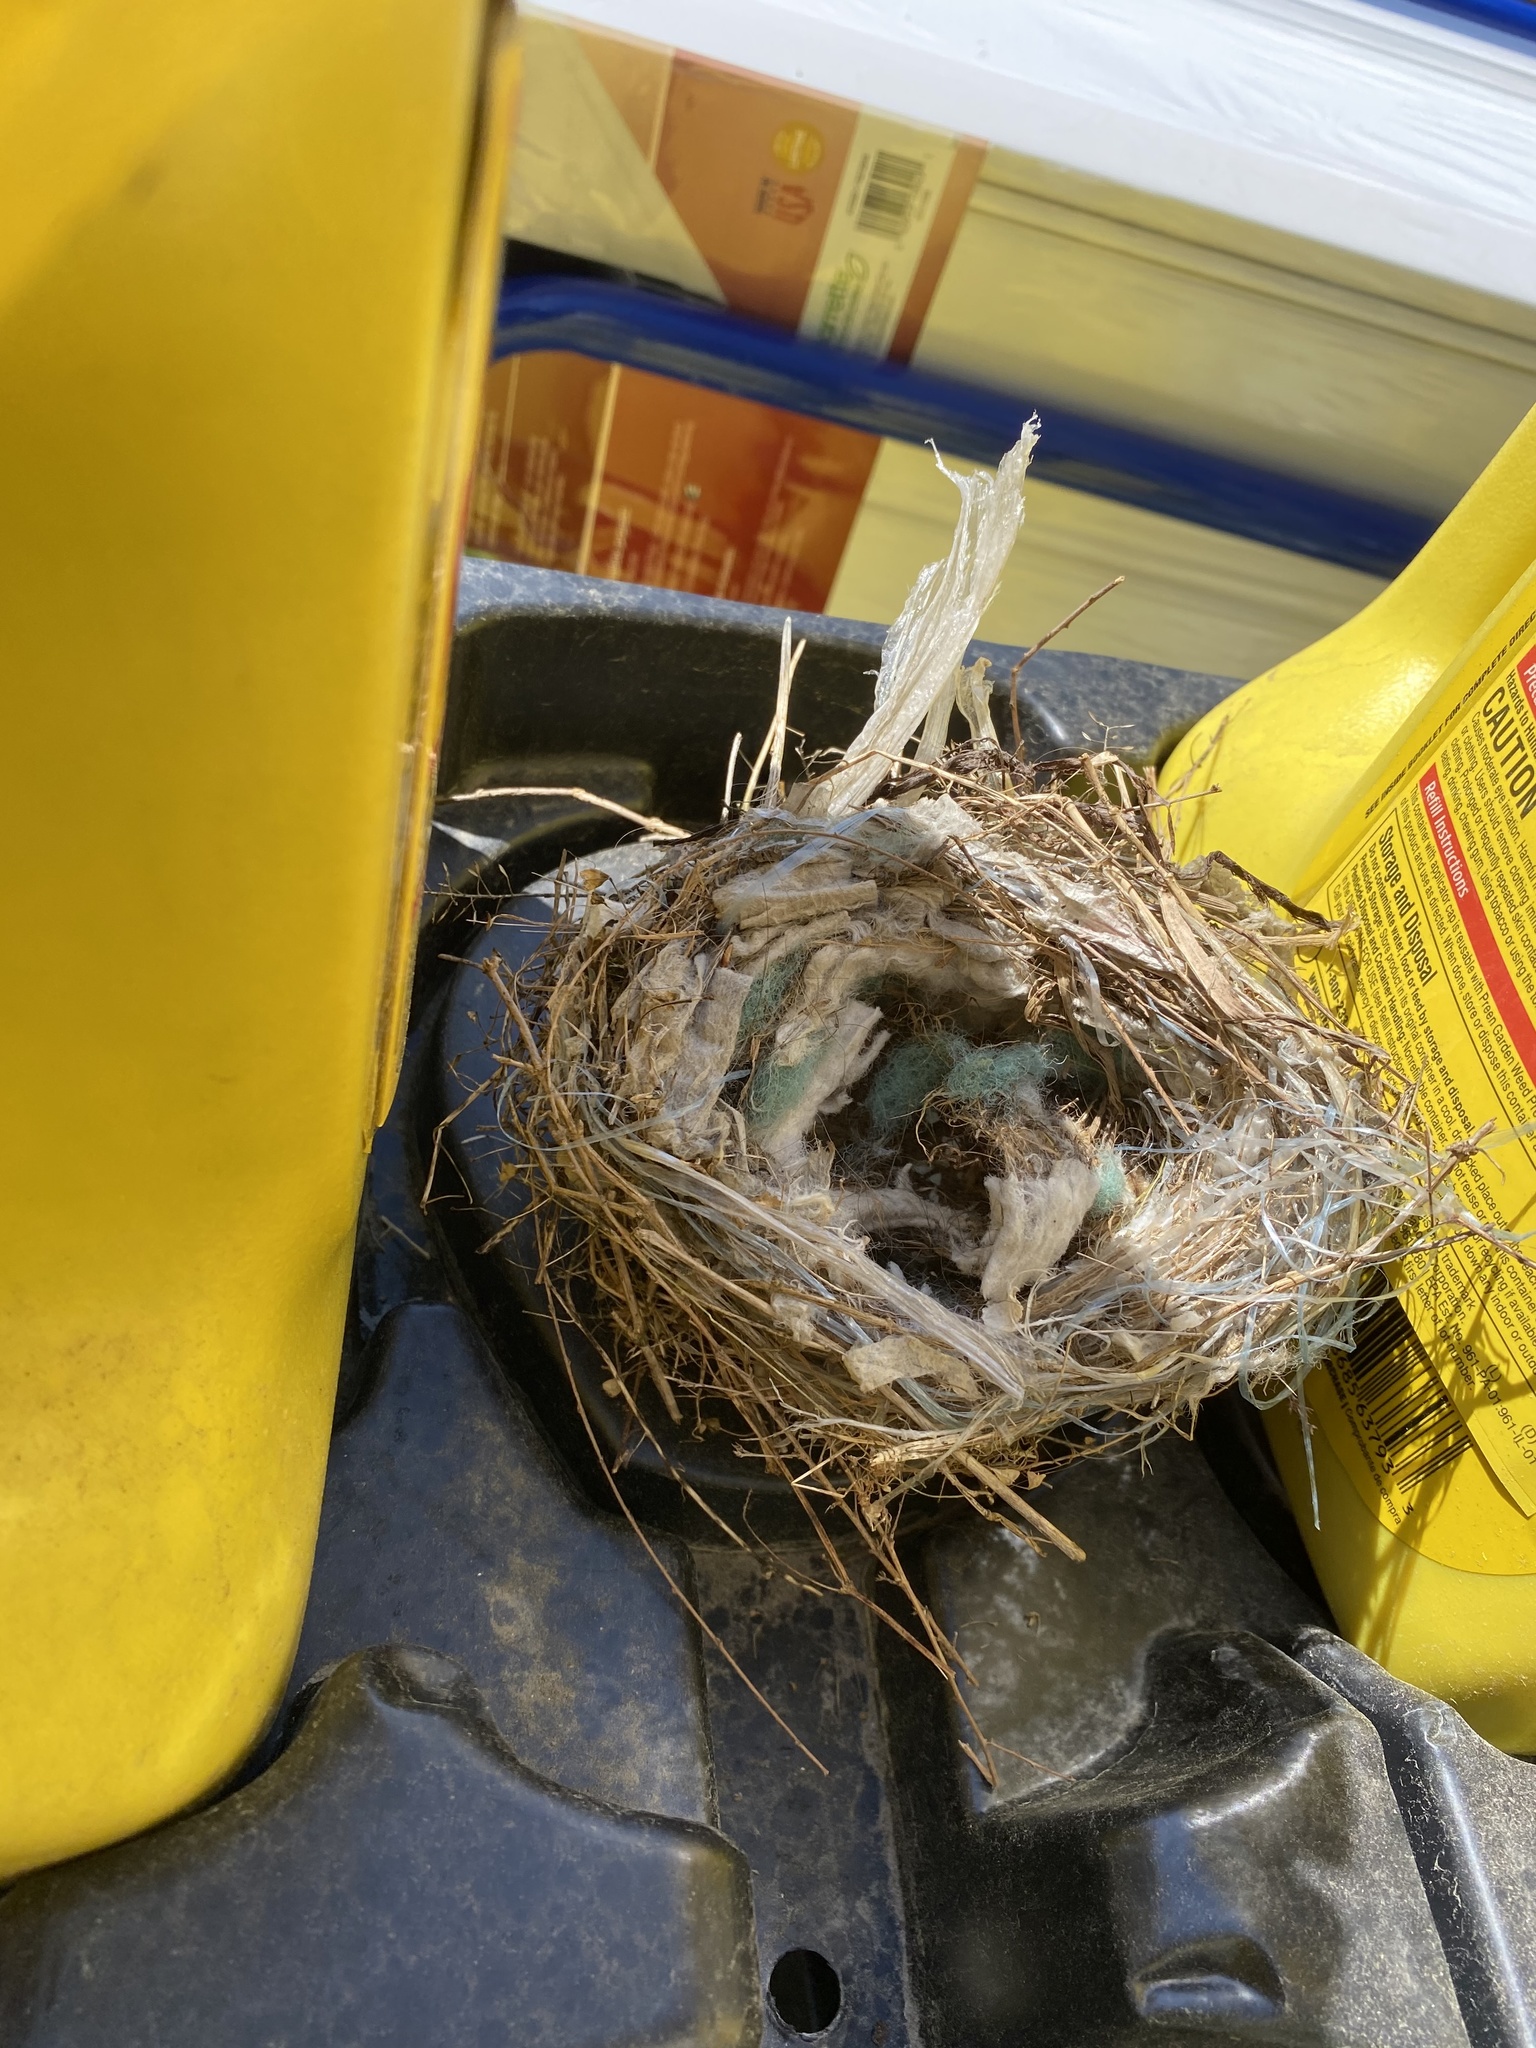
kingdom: Animalia
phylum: Chordata
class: Aves
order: Passeriformes
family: Passeridae
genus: Passer
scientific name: Passer domesticus
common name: House sparrow
